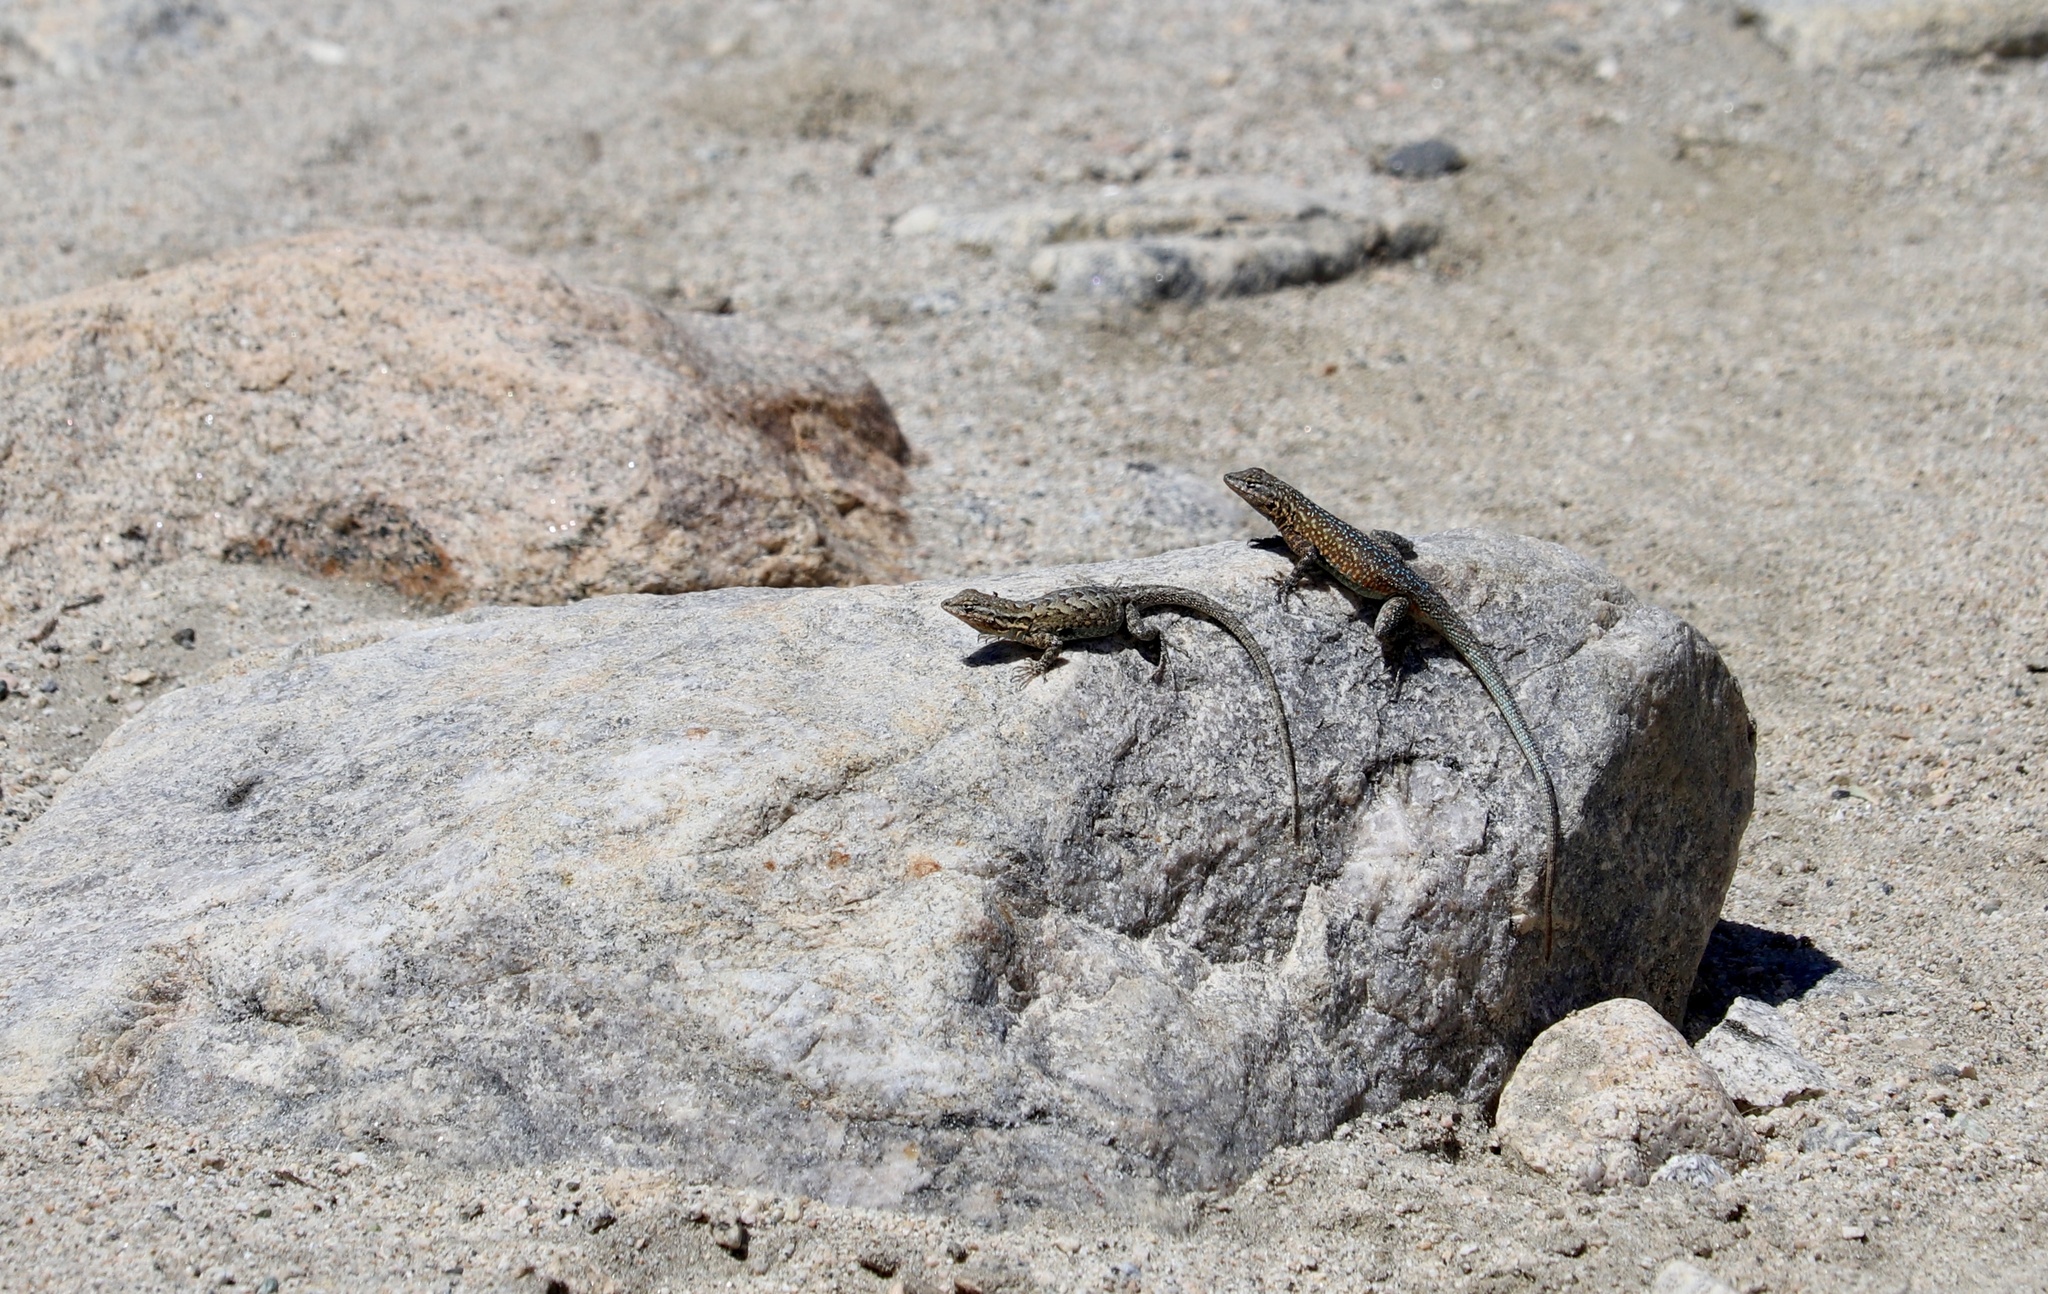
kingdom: Animalia
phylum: Chordata
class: Squamata
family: Phrynosomatidae
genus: Uta
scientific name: Uta stansburiana
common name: Side-blotched lizard
